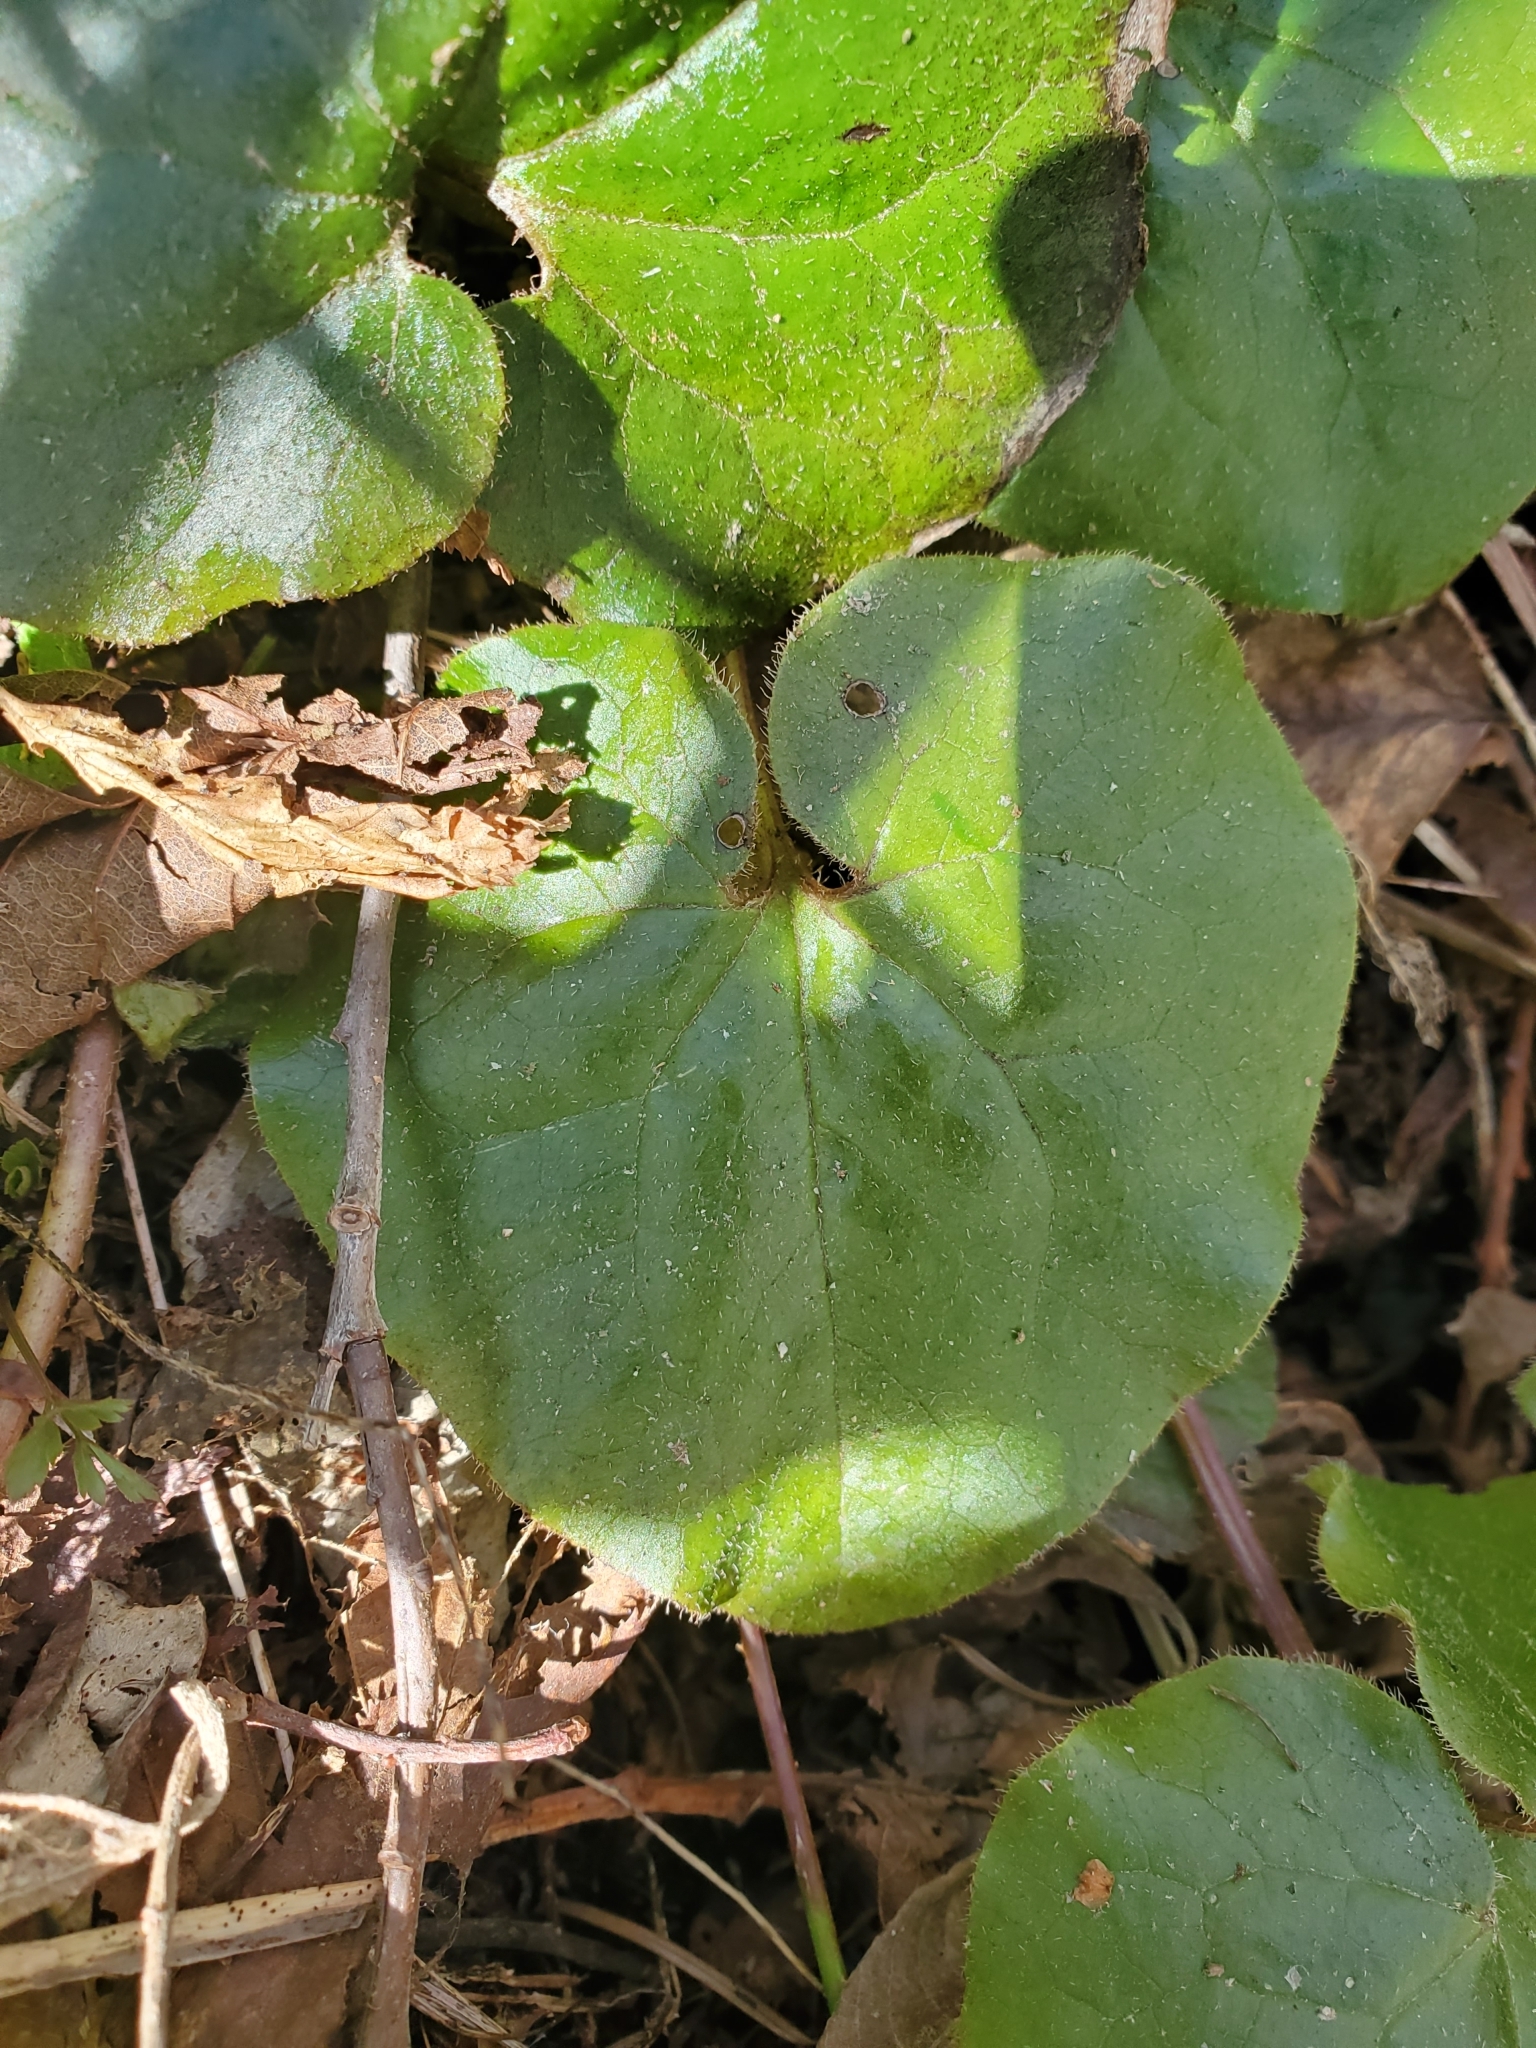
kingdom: Plantae
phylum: Tracheophyta
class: Magnoliopsida
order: Piperales
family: Aristolochiaceae
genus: Asarum
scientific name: Asarum caudatum
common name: Wild ginger
